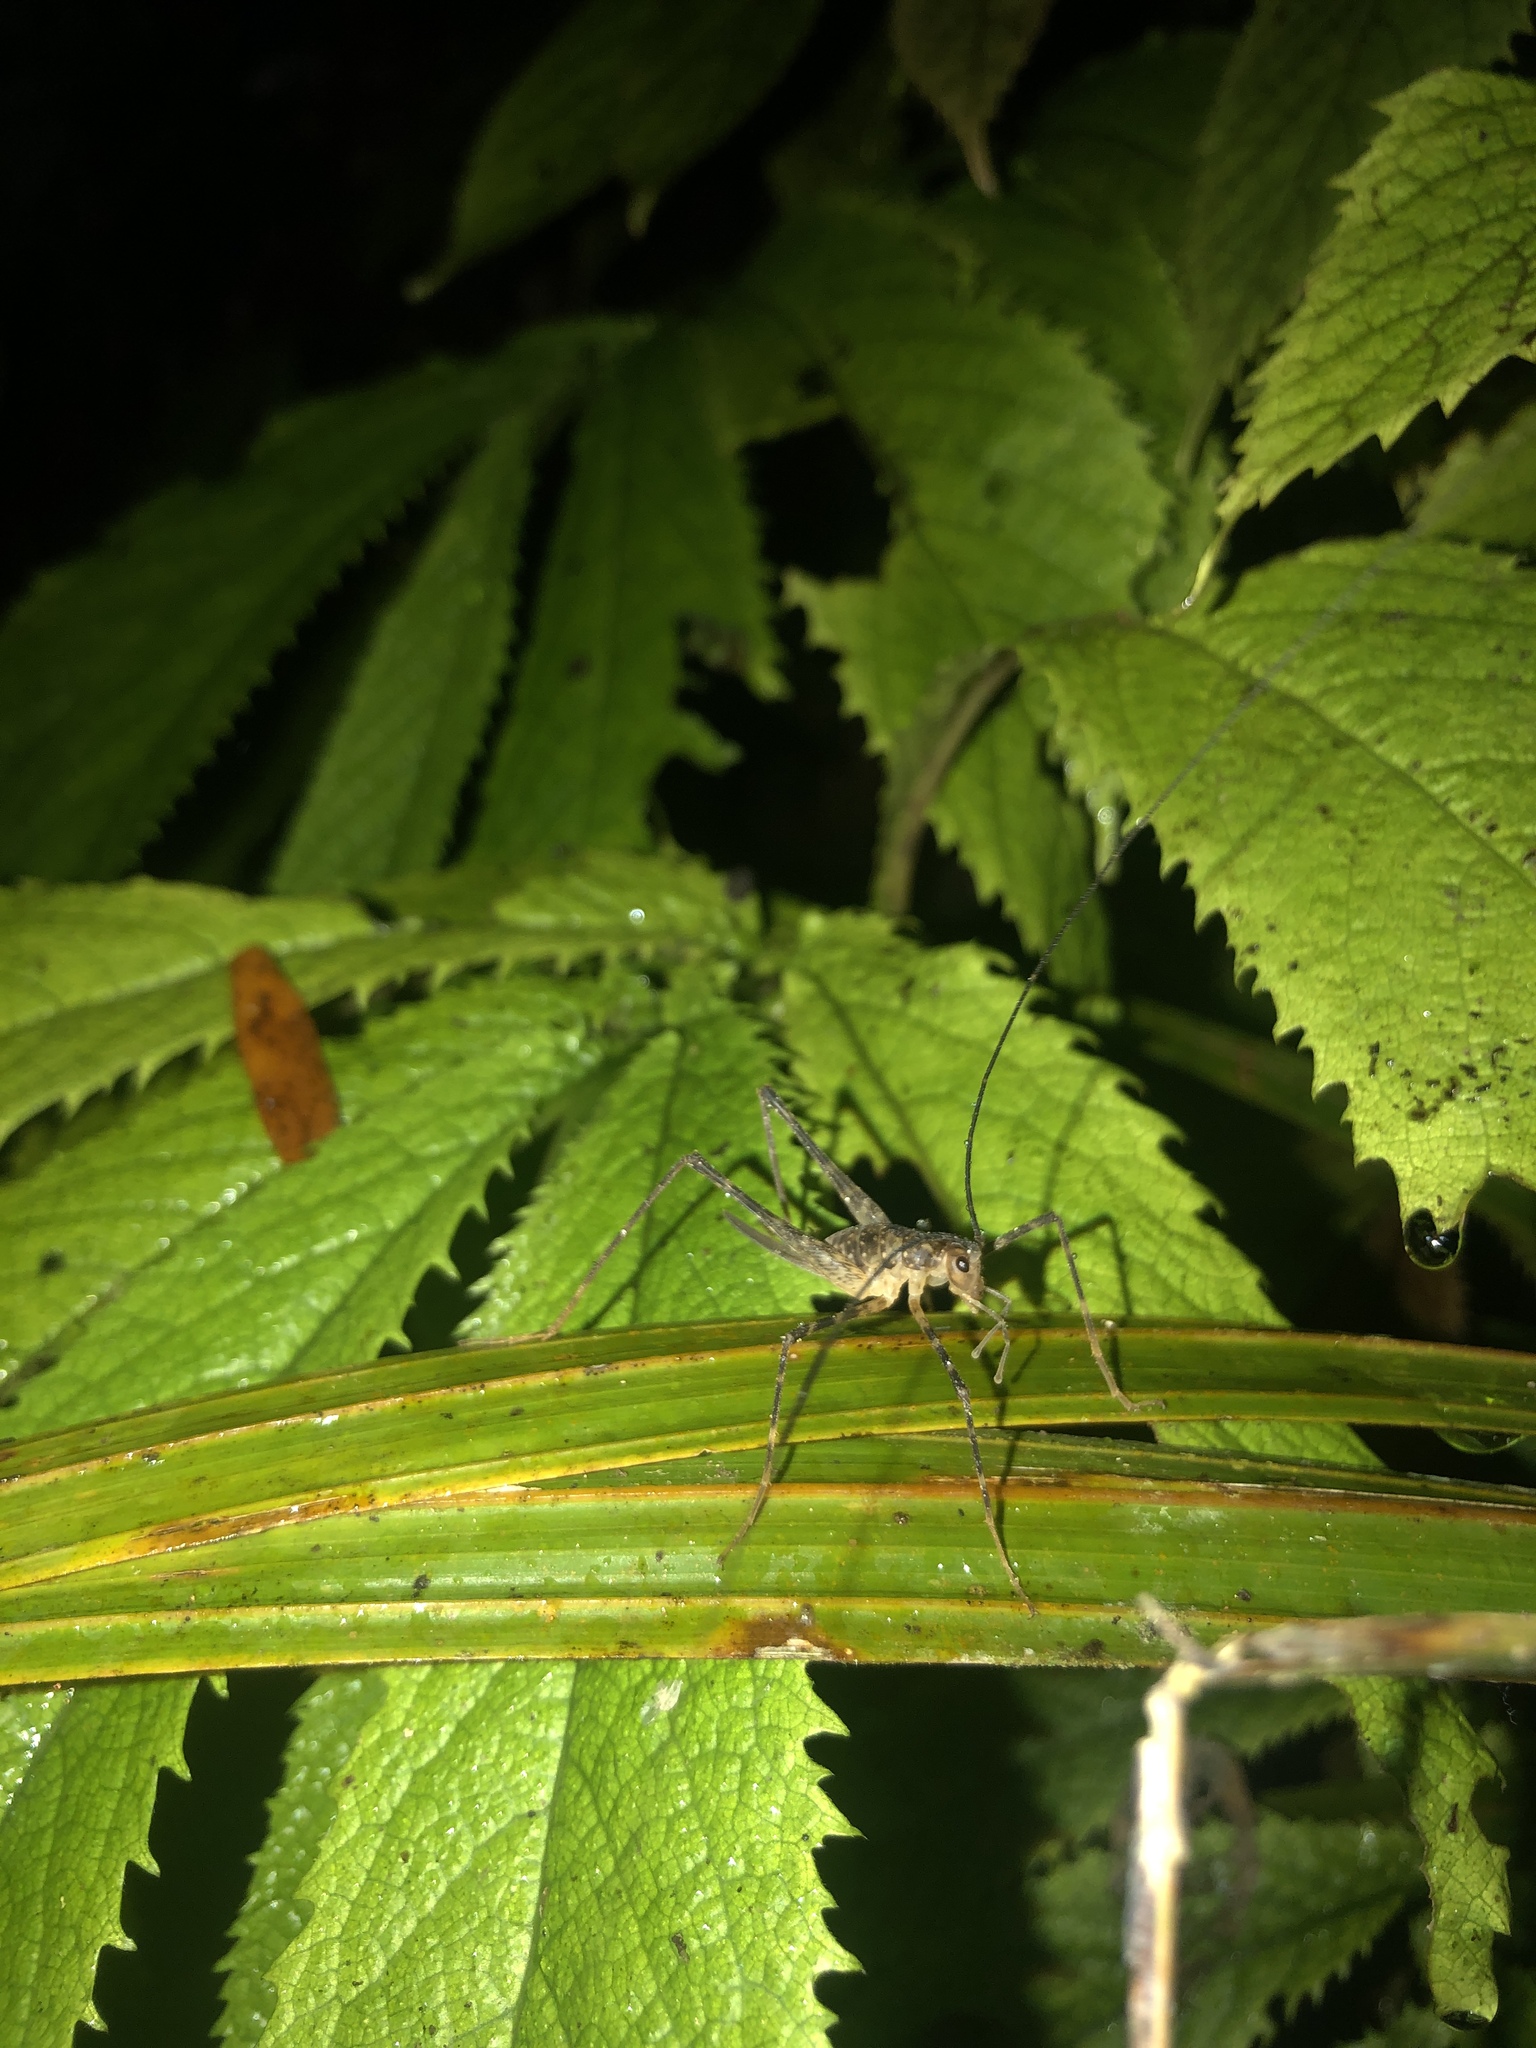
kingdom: Animalia
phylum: Arthropoda
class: Insecta
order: Orthoptera
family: Rhaphidophoridae
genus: Pallidoplectron
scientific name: Pallidoplectron turneri
